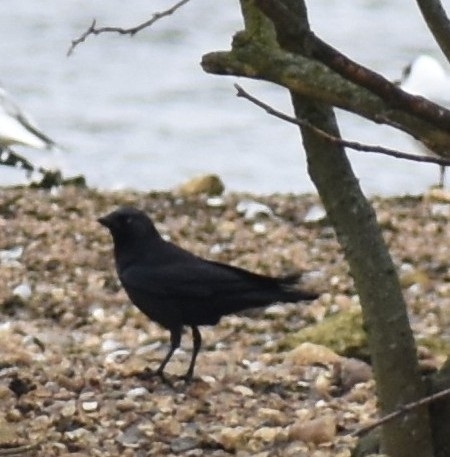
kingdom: Animalia
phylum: Chordata
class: Aves
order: Passeriformes
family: Corvidae
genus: Coloeus
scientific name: Coloeus monedula
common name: Western jackdaw
